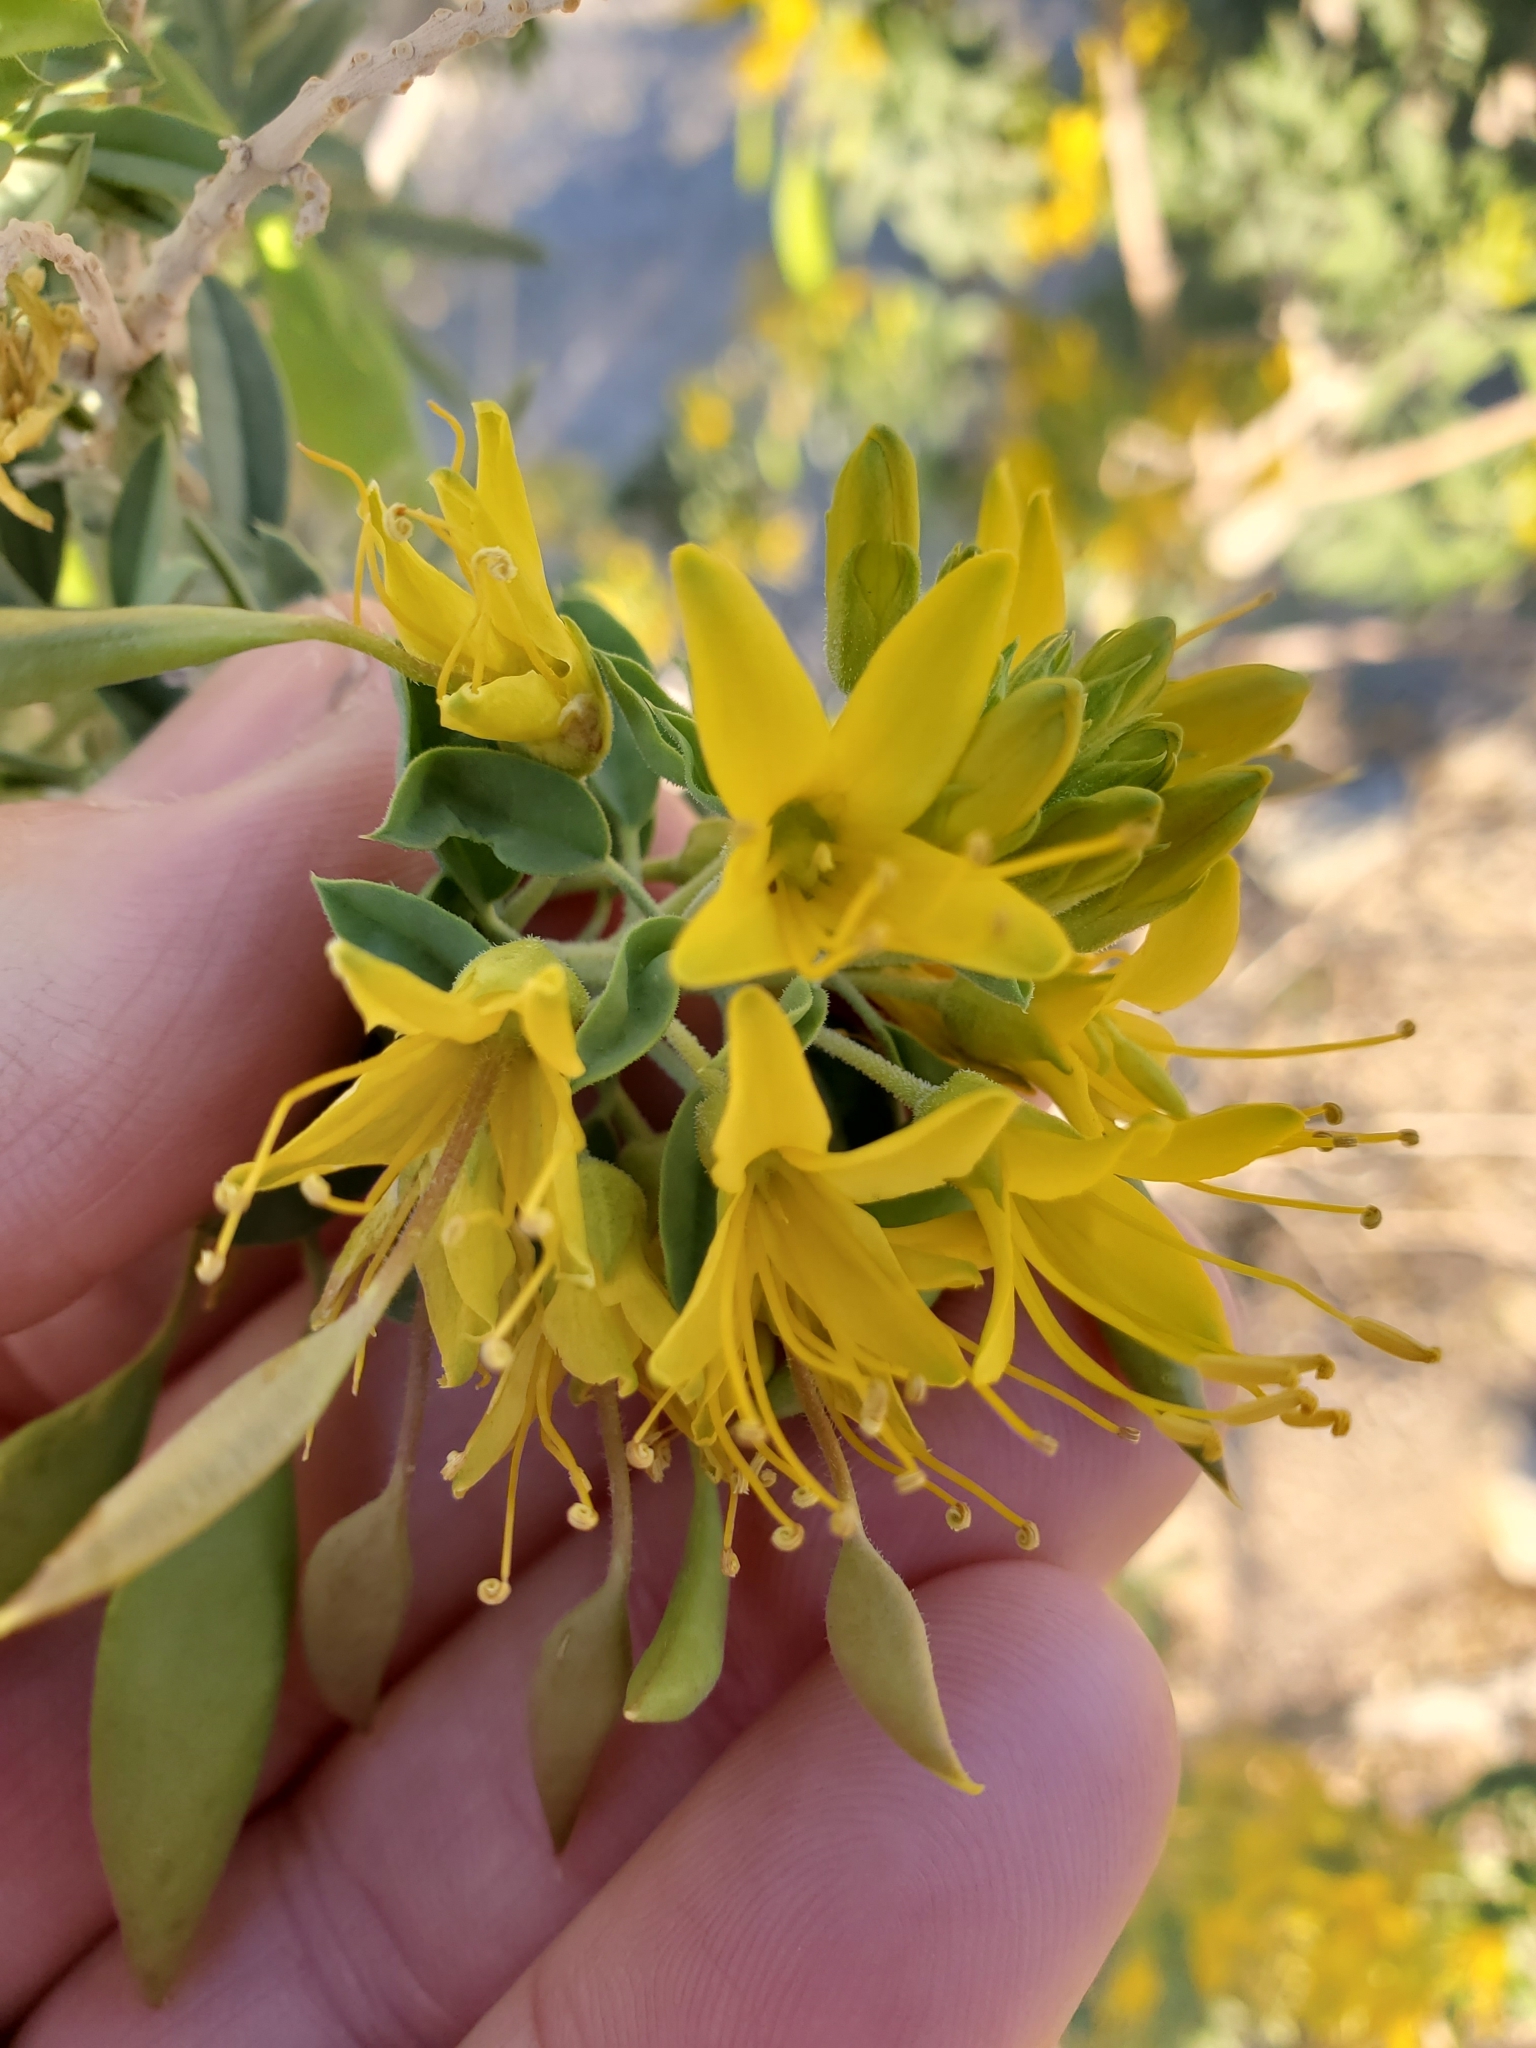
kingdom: Plantae
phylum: Tracheophyta
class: Magnoliopsida
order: Brassicales
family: Cleomaceae
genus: Cleomella
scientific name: Cleomella arborea
